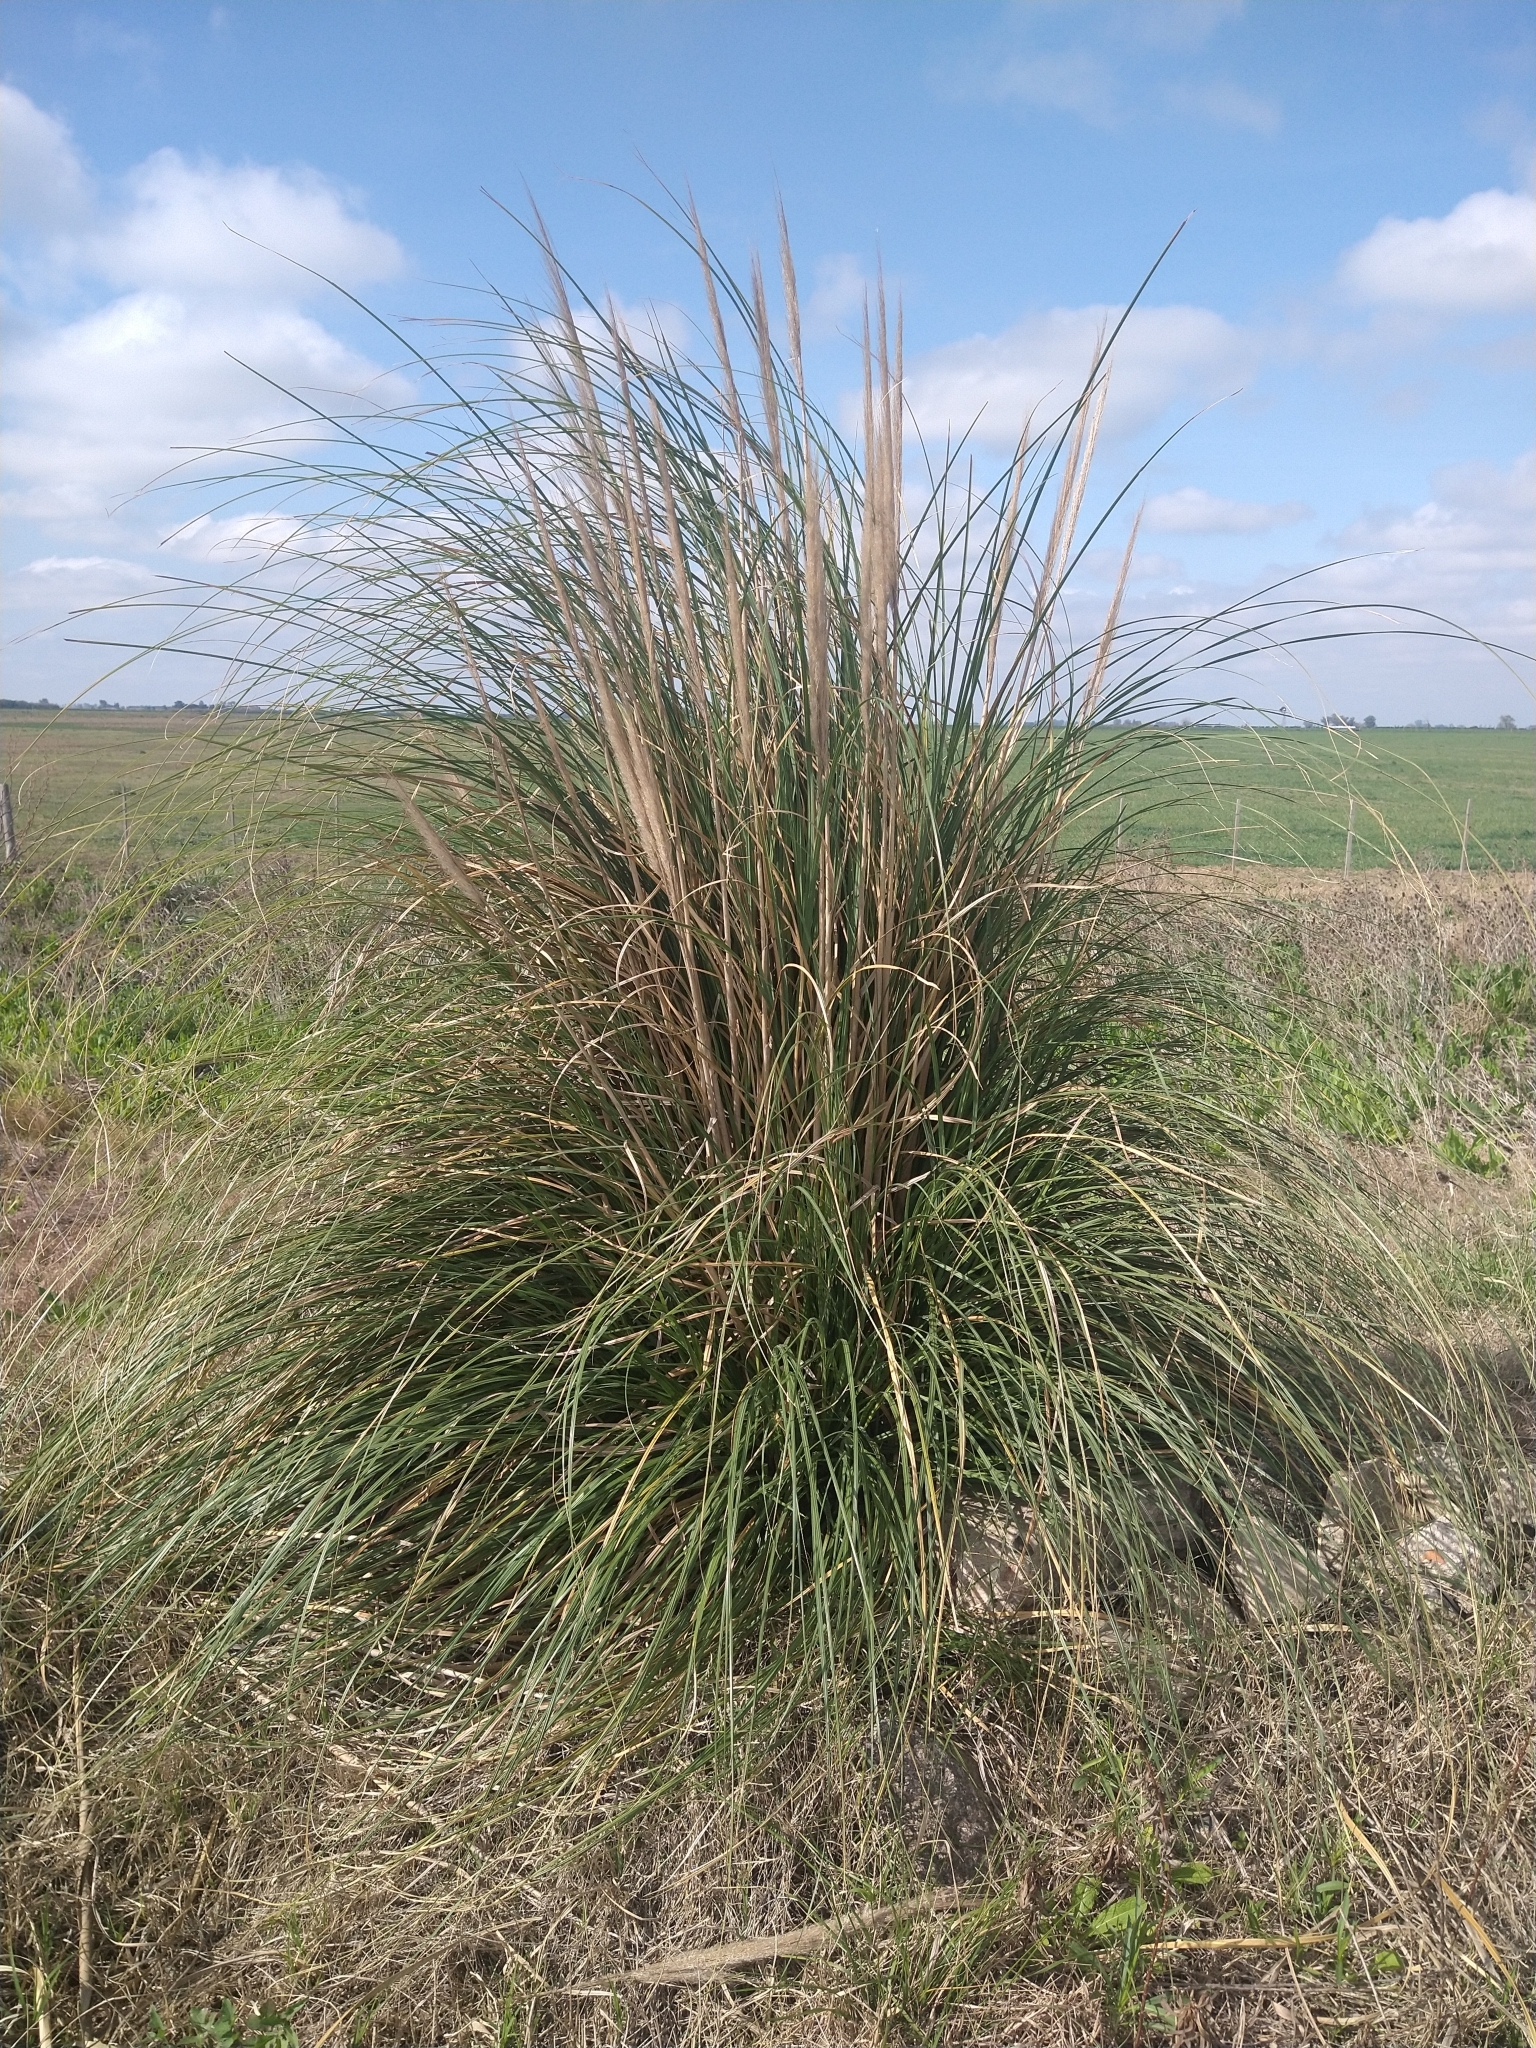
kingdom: Plantae
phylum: Tracheophyta
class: Liliopsida
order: Poales
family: Poaceae
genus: Cortaderia
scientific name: Cortaderia selloana
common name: Uruguayan pampas grass
